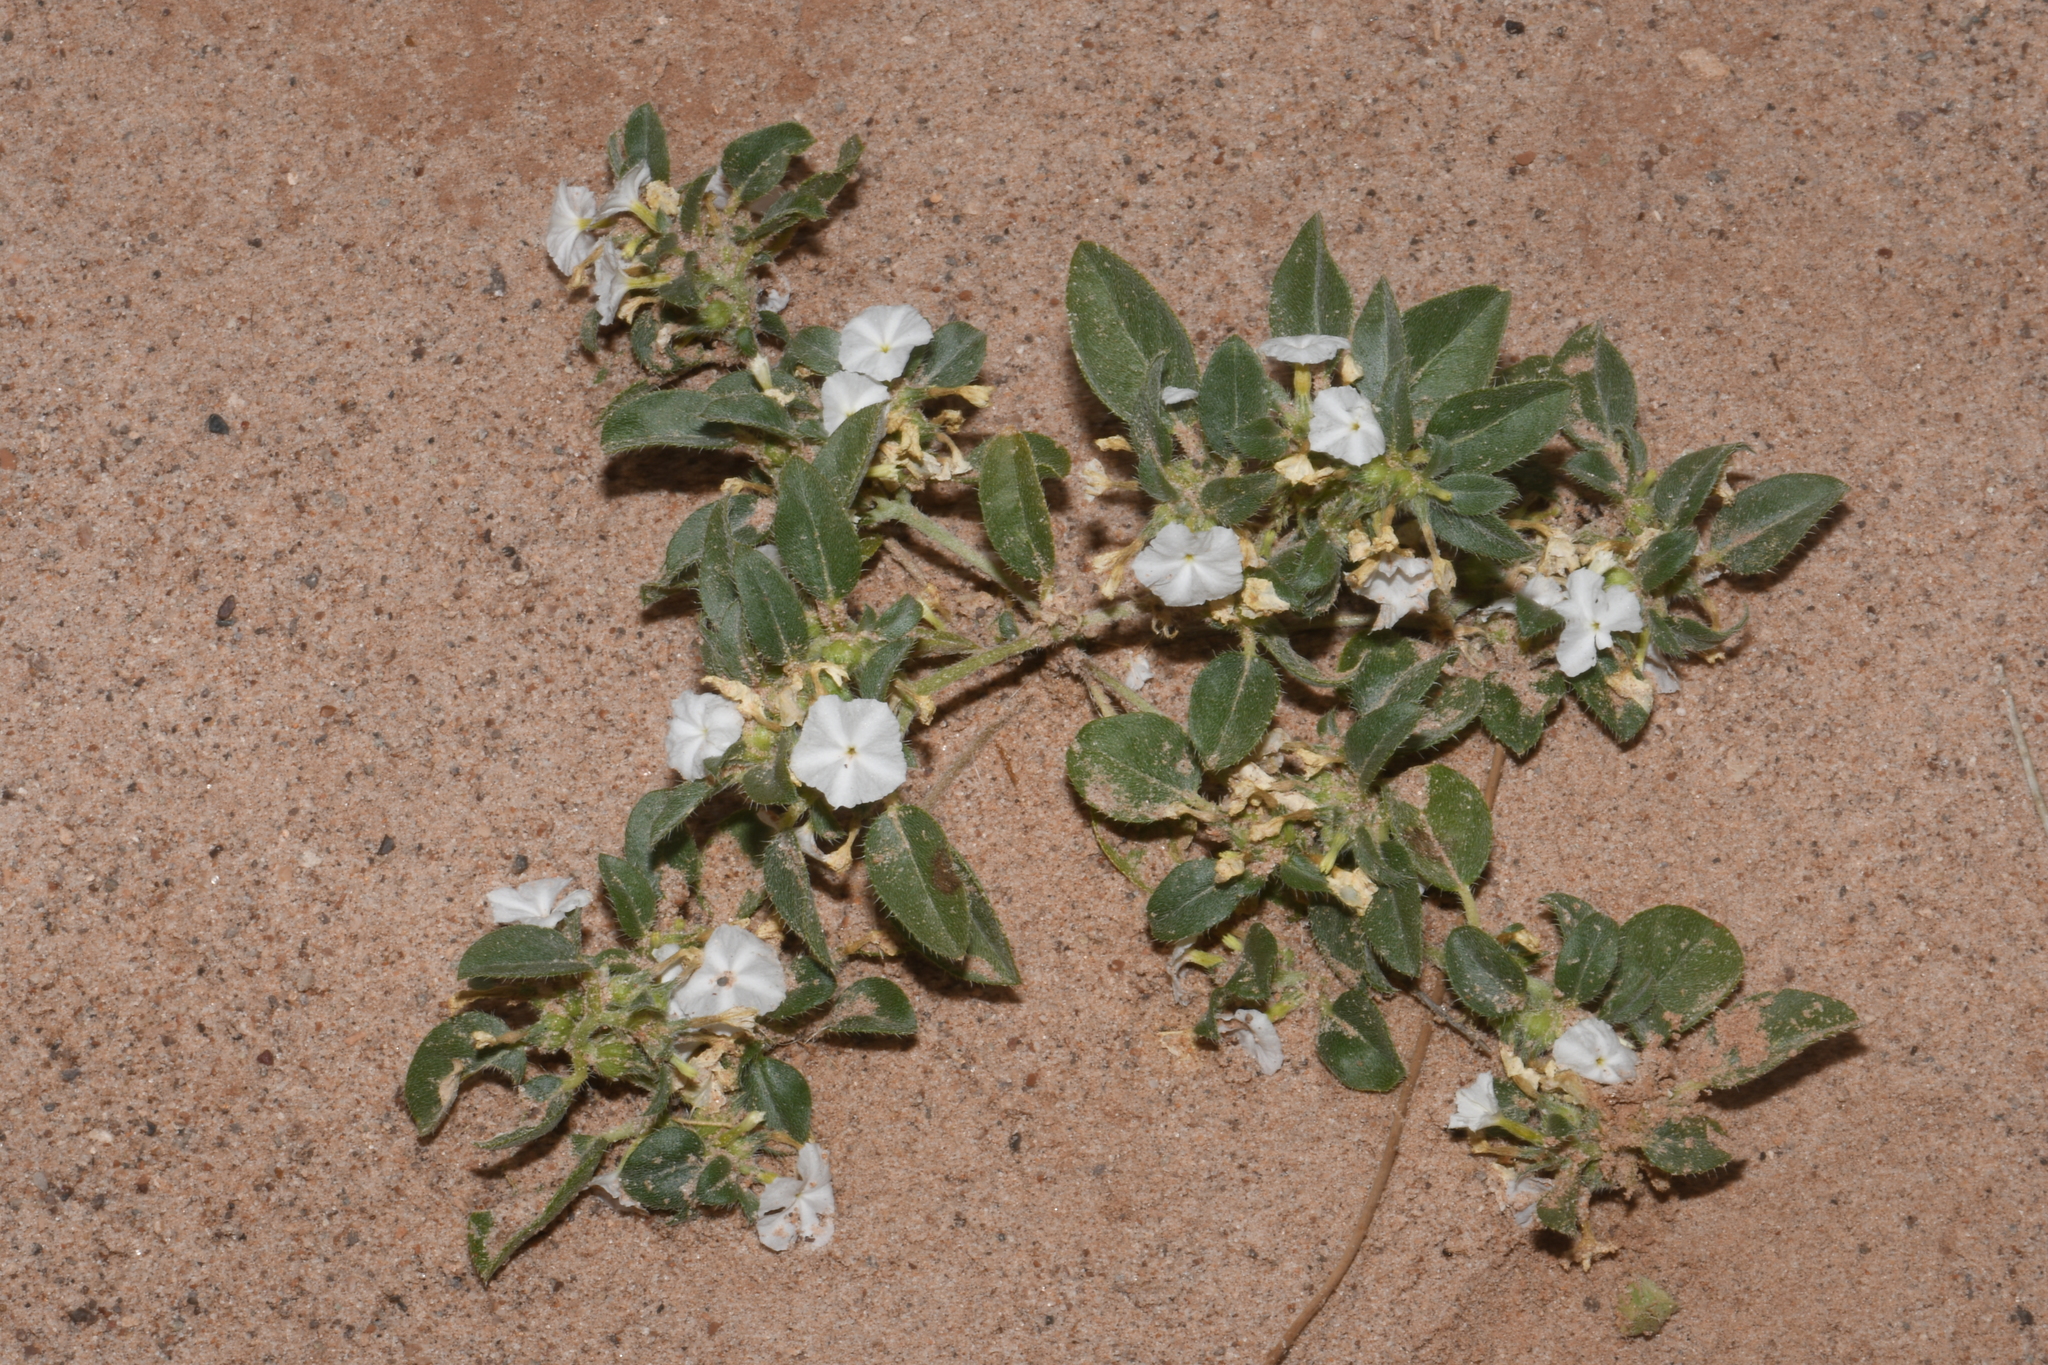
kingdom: Plantae
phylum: Tracheophyta
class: Magnoliopsida
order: Boraginales
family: Heliotropiaceae
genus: Euploca
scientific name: Euploca convolvulacea
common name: Bindweed heliotrope
